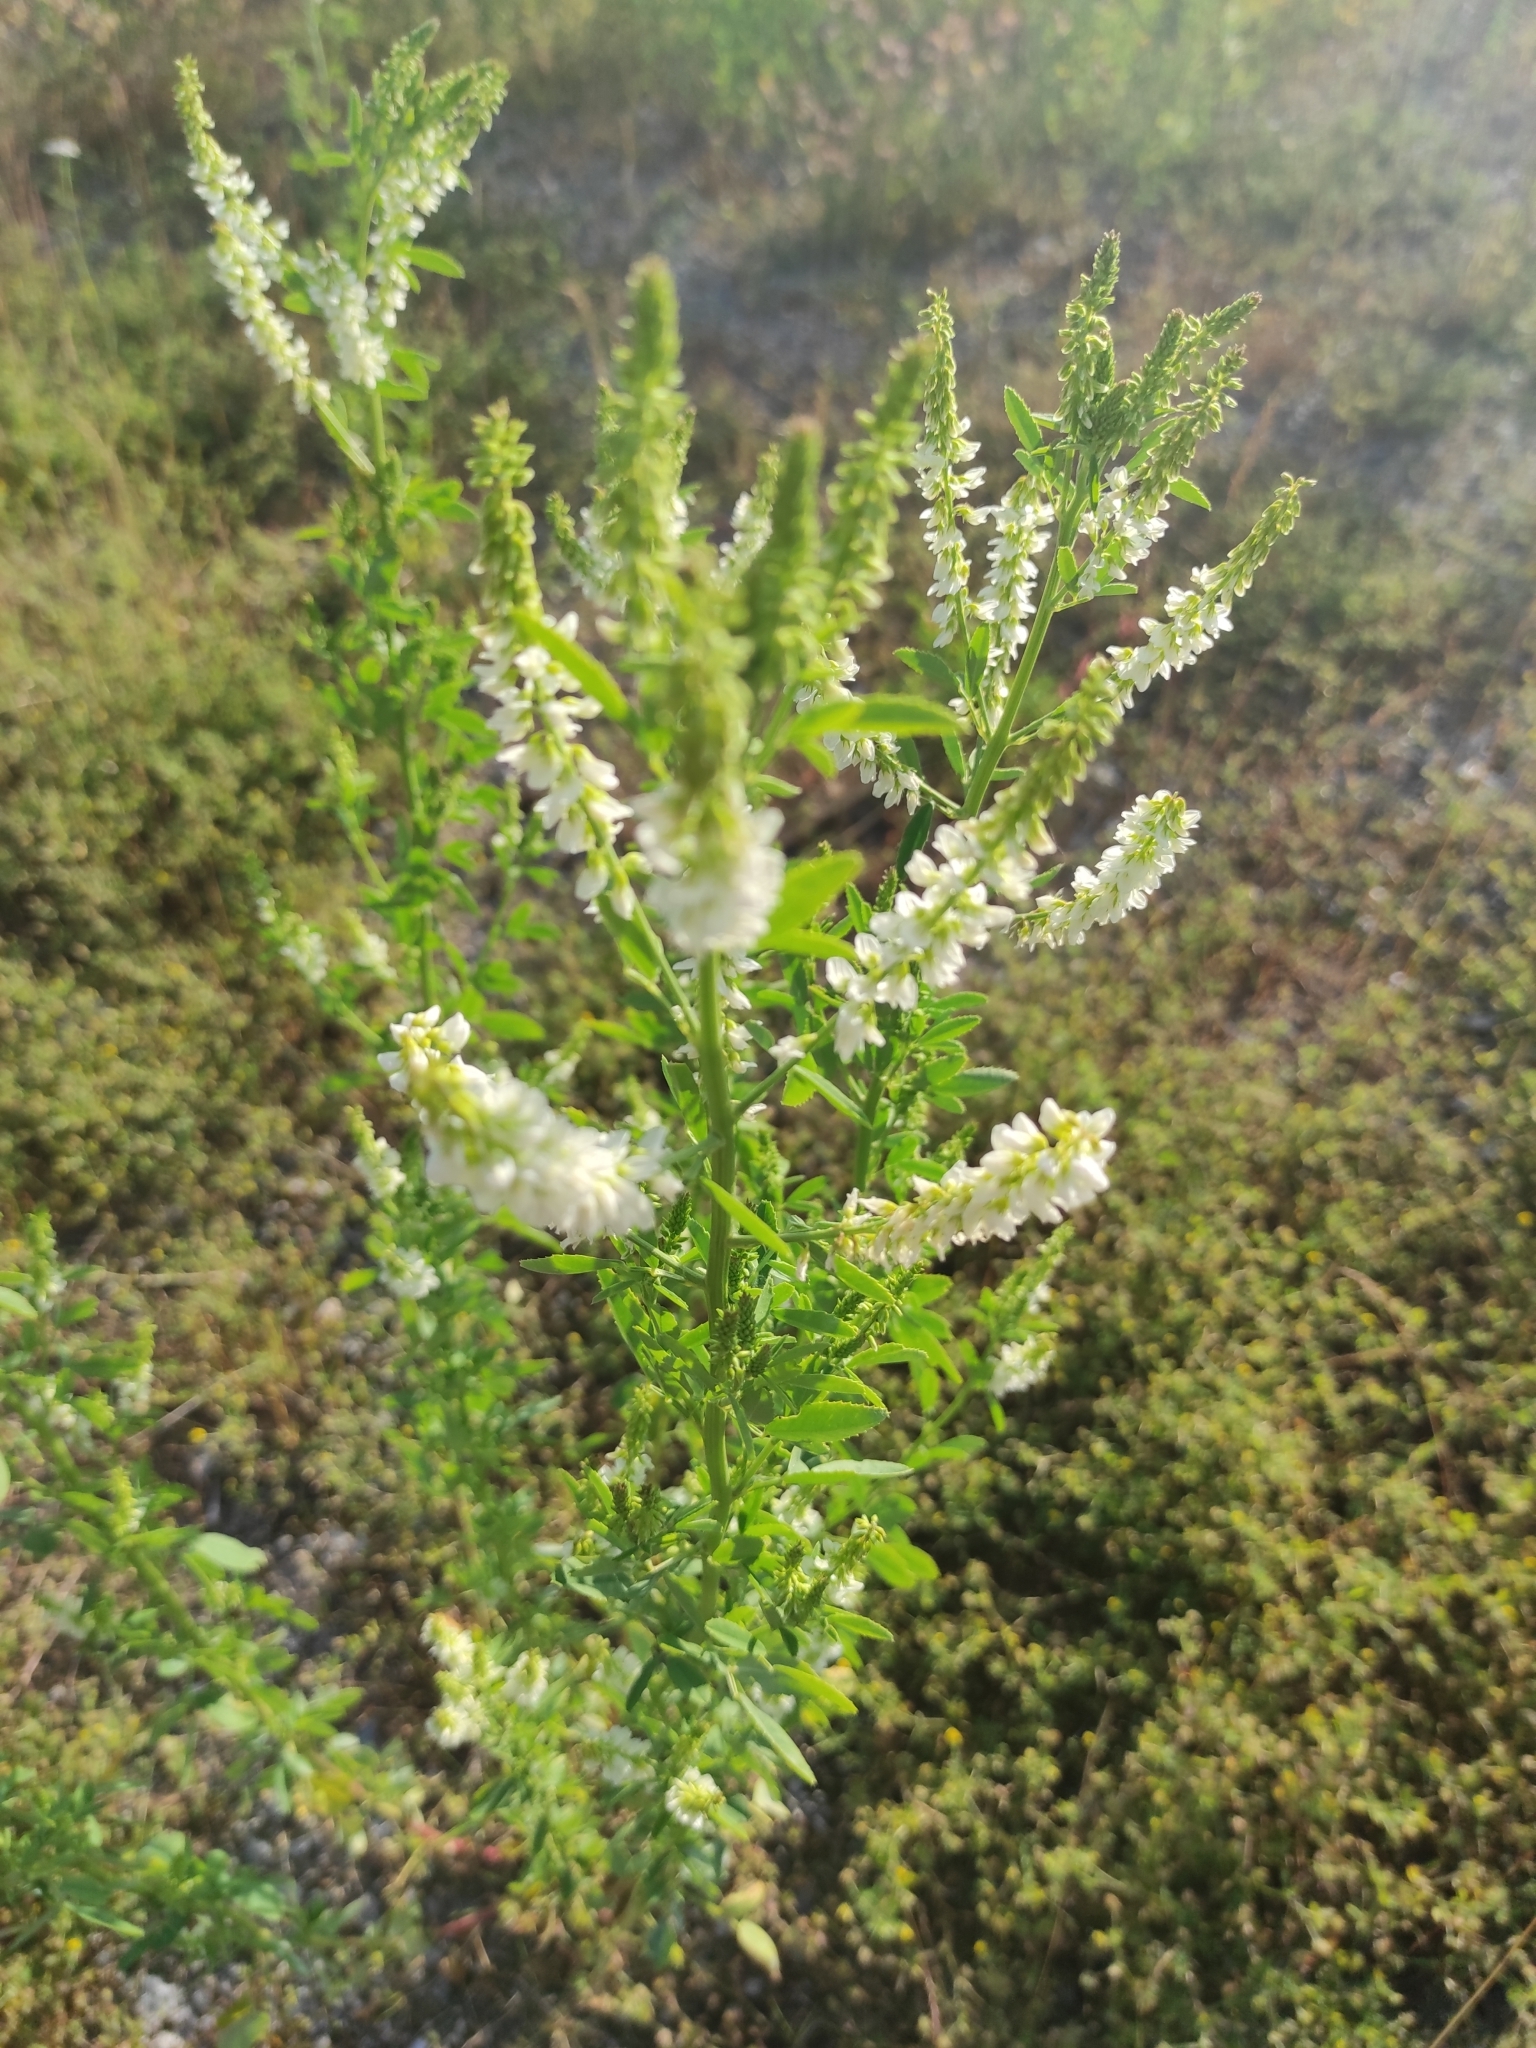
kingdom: Plantae
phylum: Tracheophyta
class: Magnoliopsida
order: Fabales
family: Fabaceae
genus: Melilotus
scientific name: Melilotus albus
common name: White melilot
